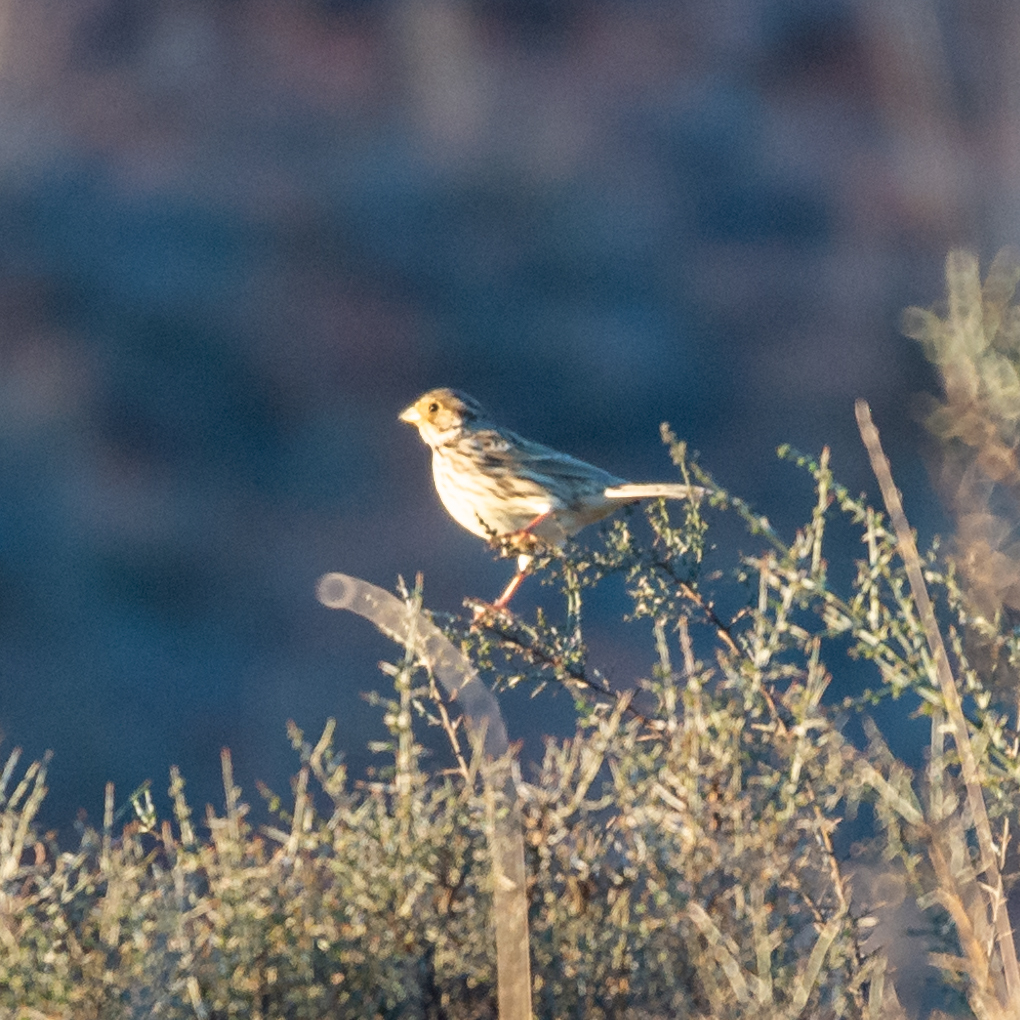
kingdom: Animalia
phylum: Chordata
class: Aves
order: Passeriformes
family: Emberizidae
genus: Emberiza
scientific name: Emberiza calandra
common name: Corn bunting
